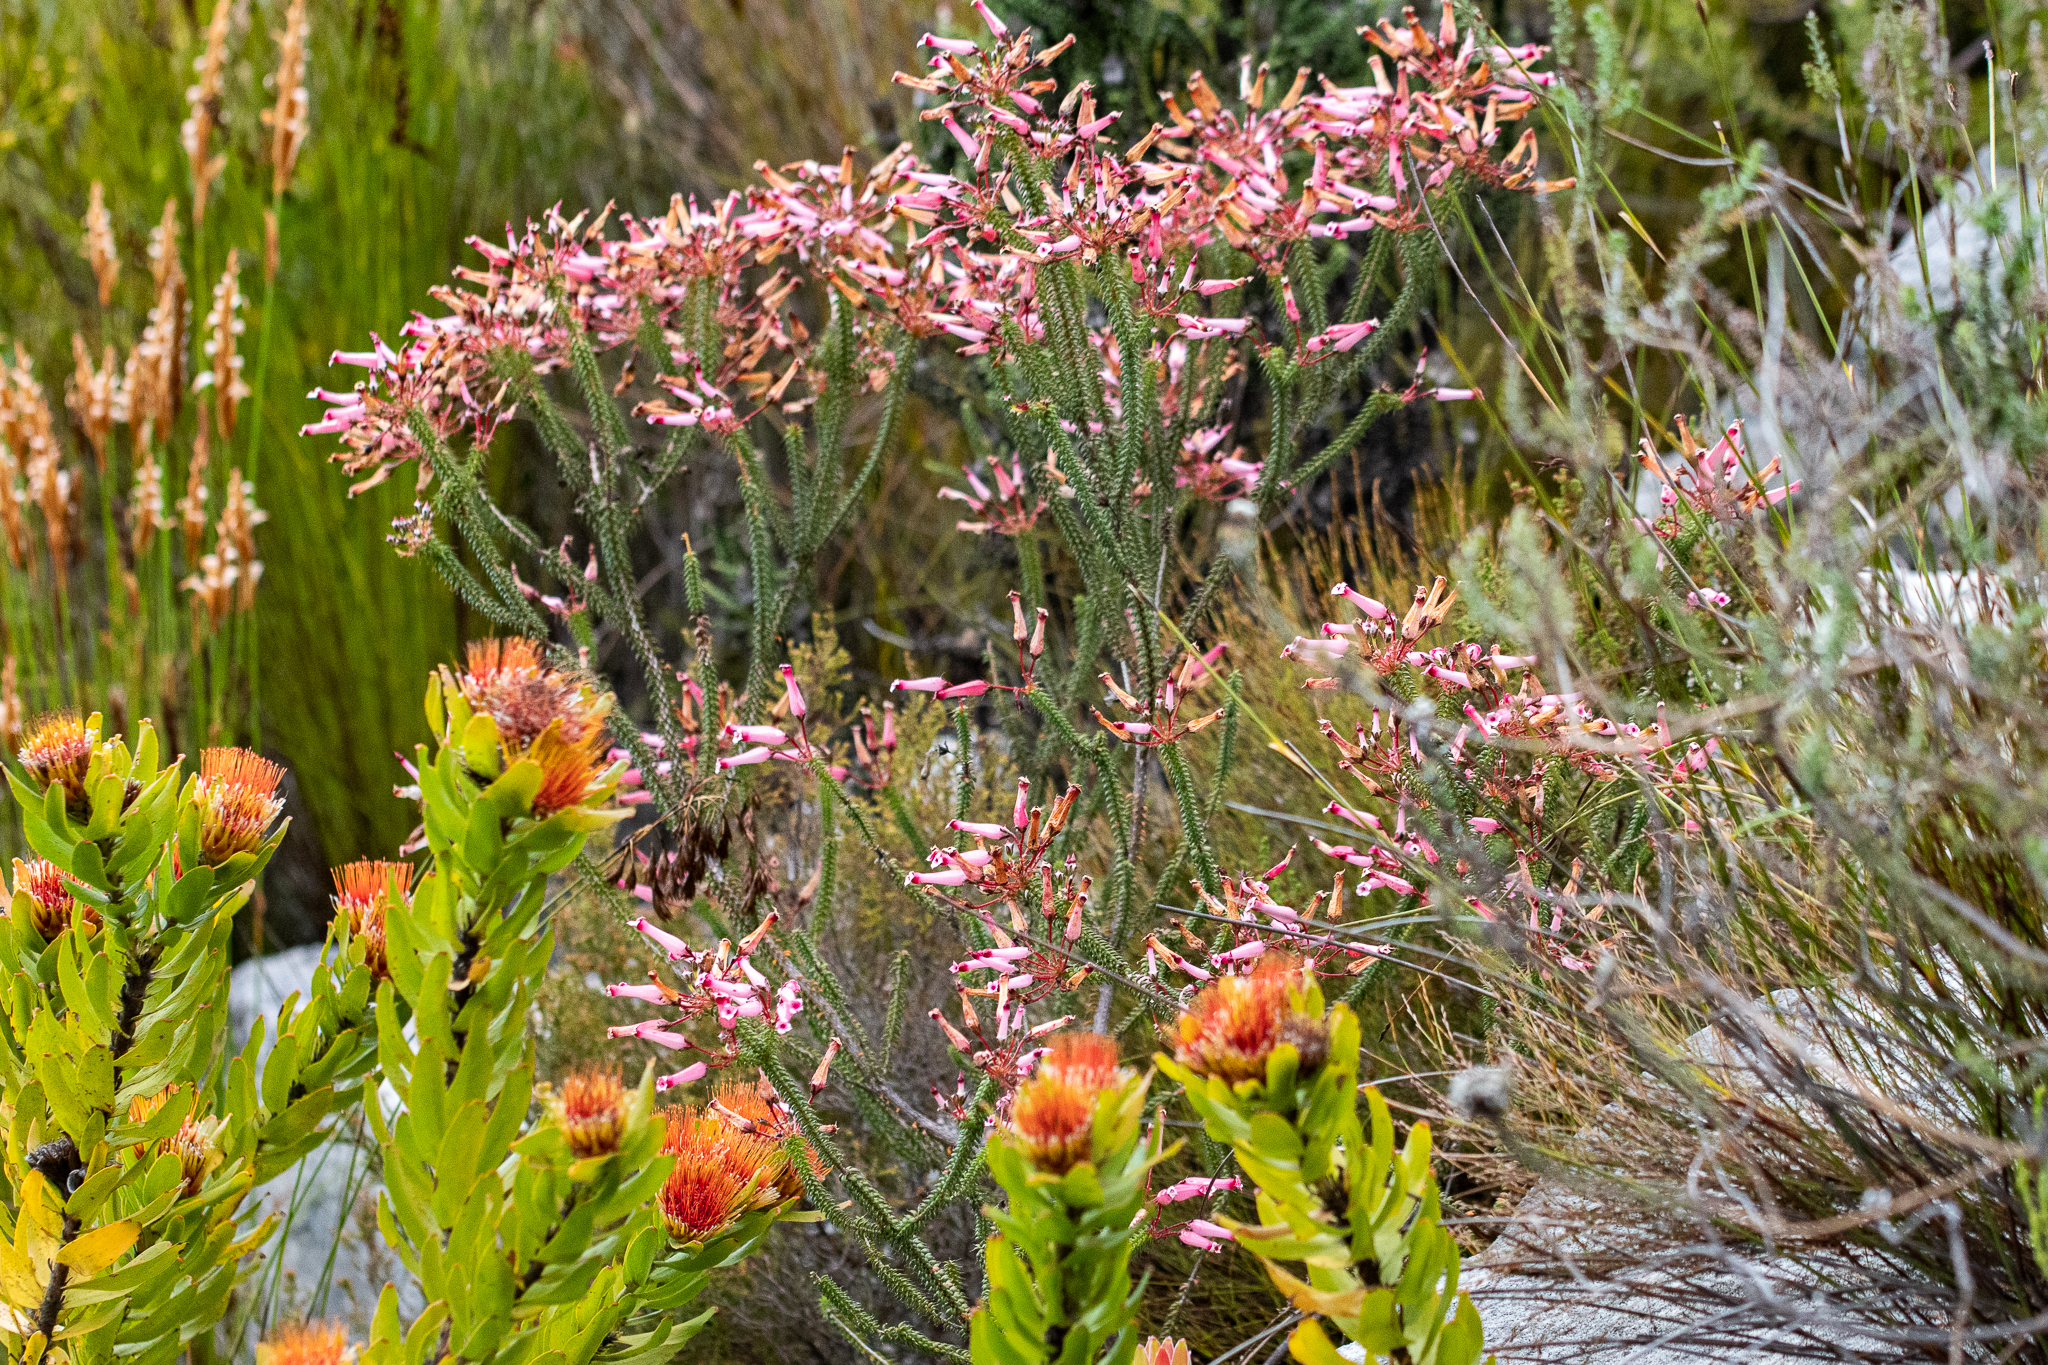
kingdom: Plantae
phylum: Tracheophyta
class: Magnoliopsida
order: Ericales
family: Ericaceae
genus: Erica
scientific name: Erica retorta
